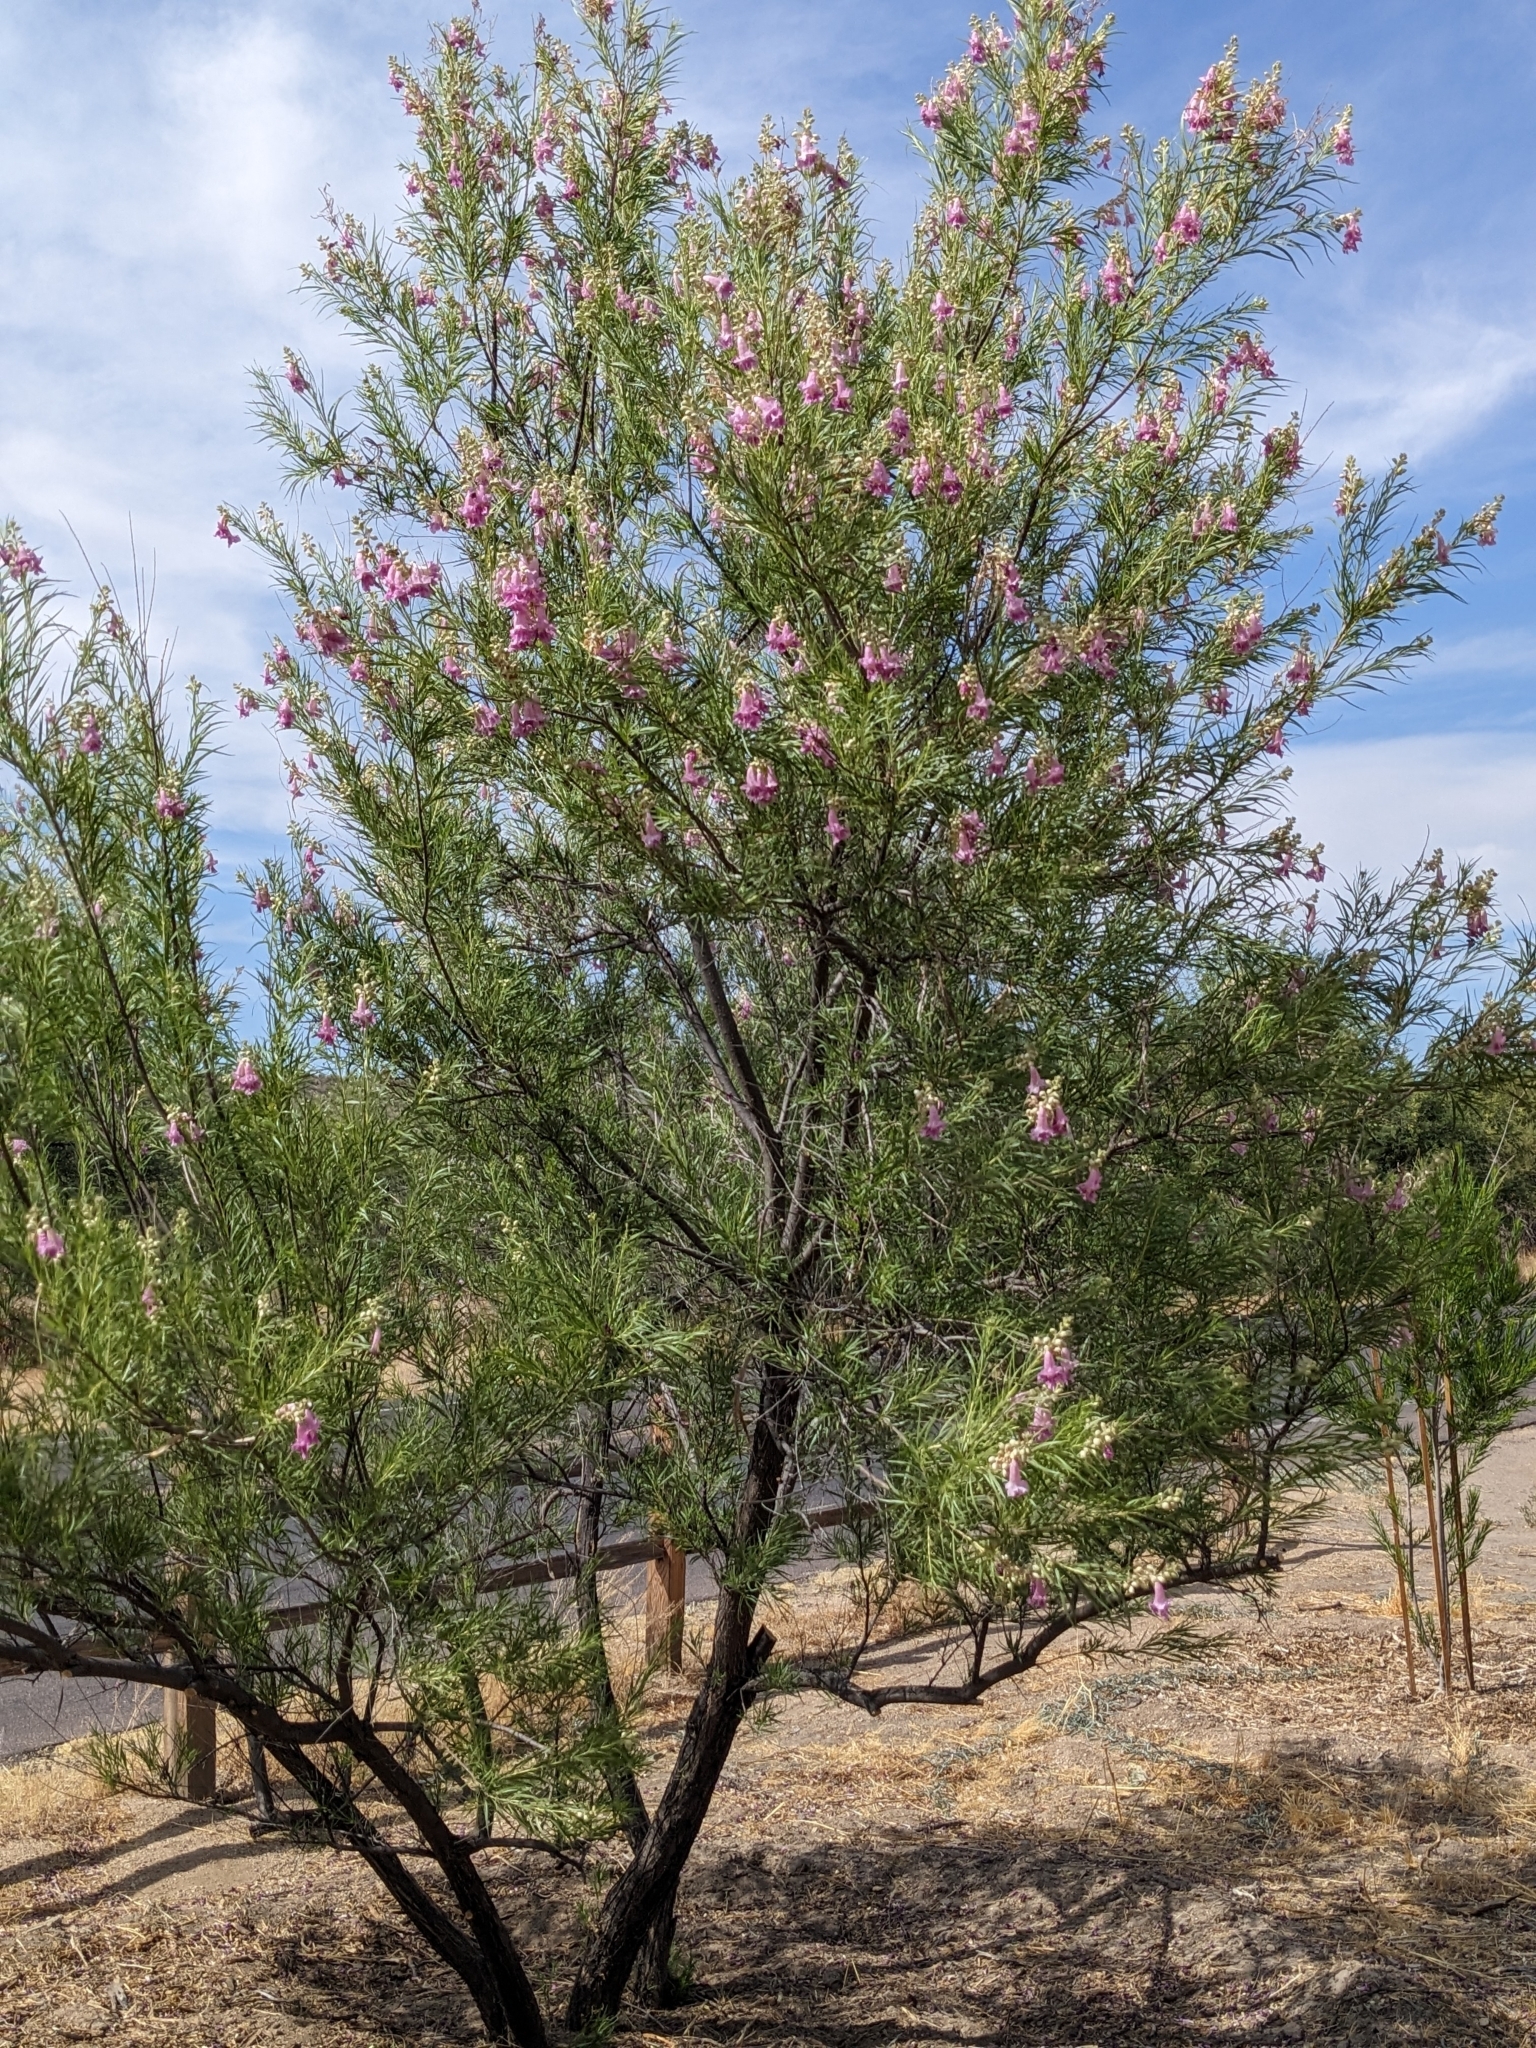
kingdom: Plantae
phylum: Tracheophyta
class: Magnoliopsida
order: Lamiales
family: Bignoniaceae
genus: Chilopsis
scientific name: Chilopsis linearis
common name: Desert-willow
